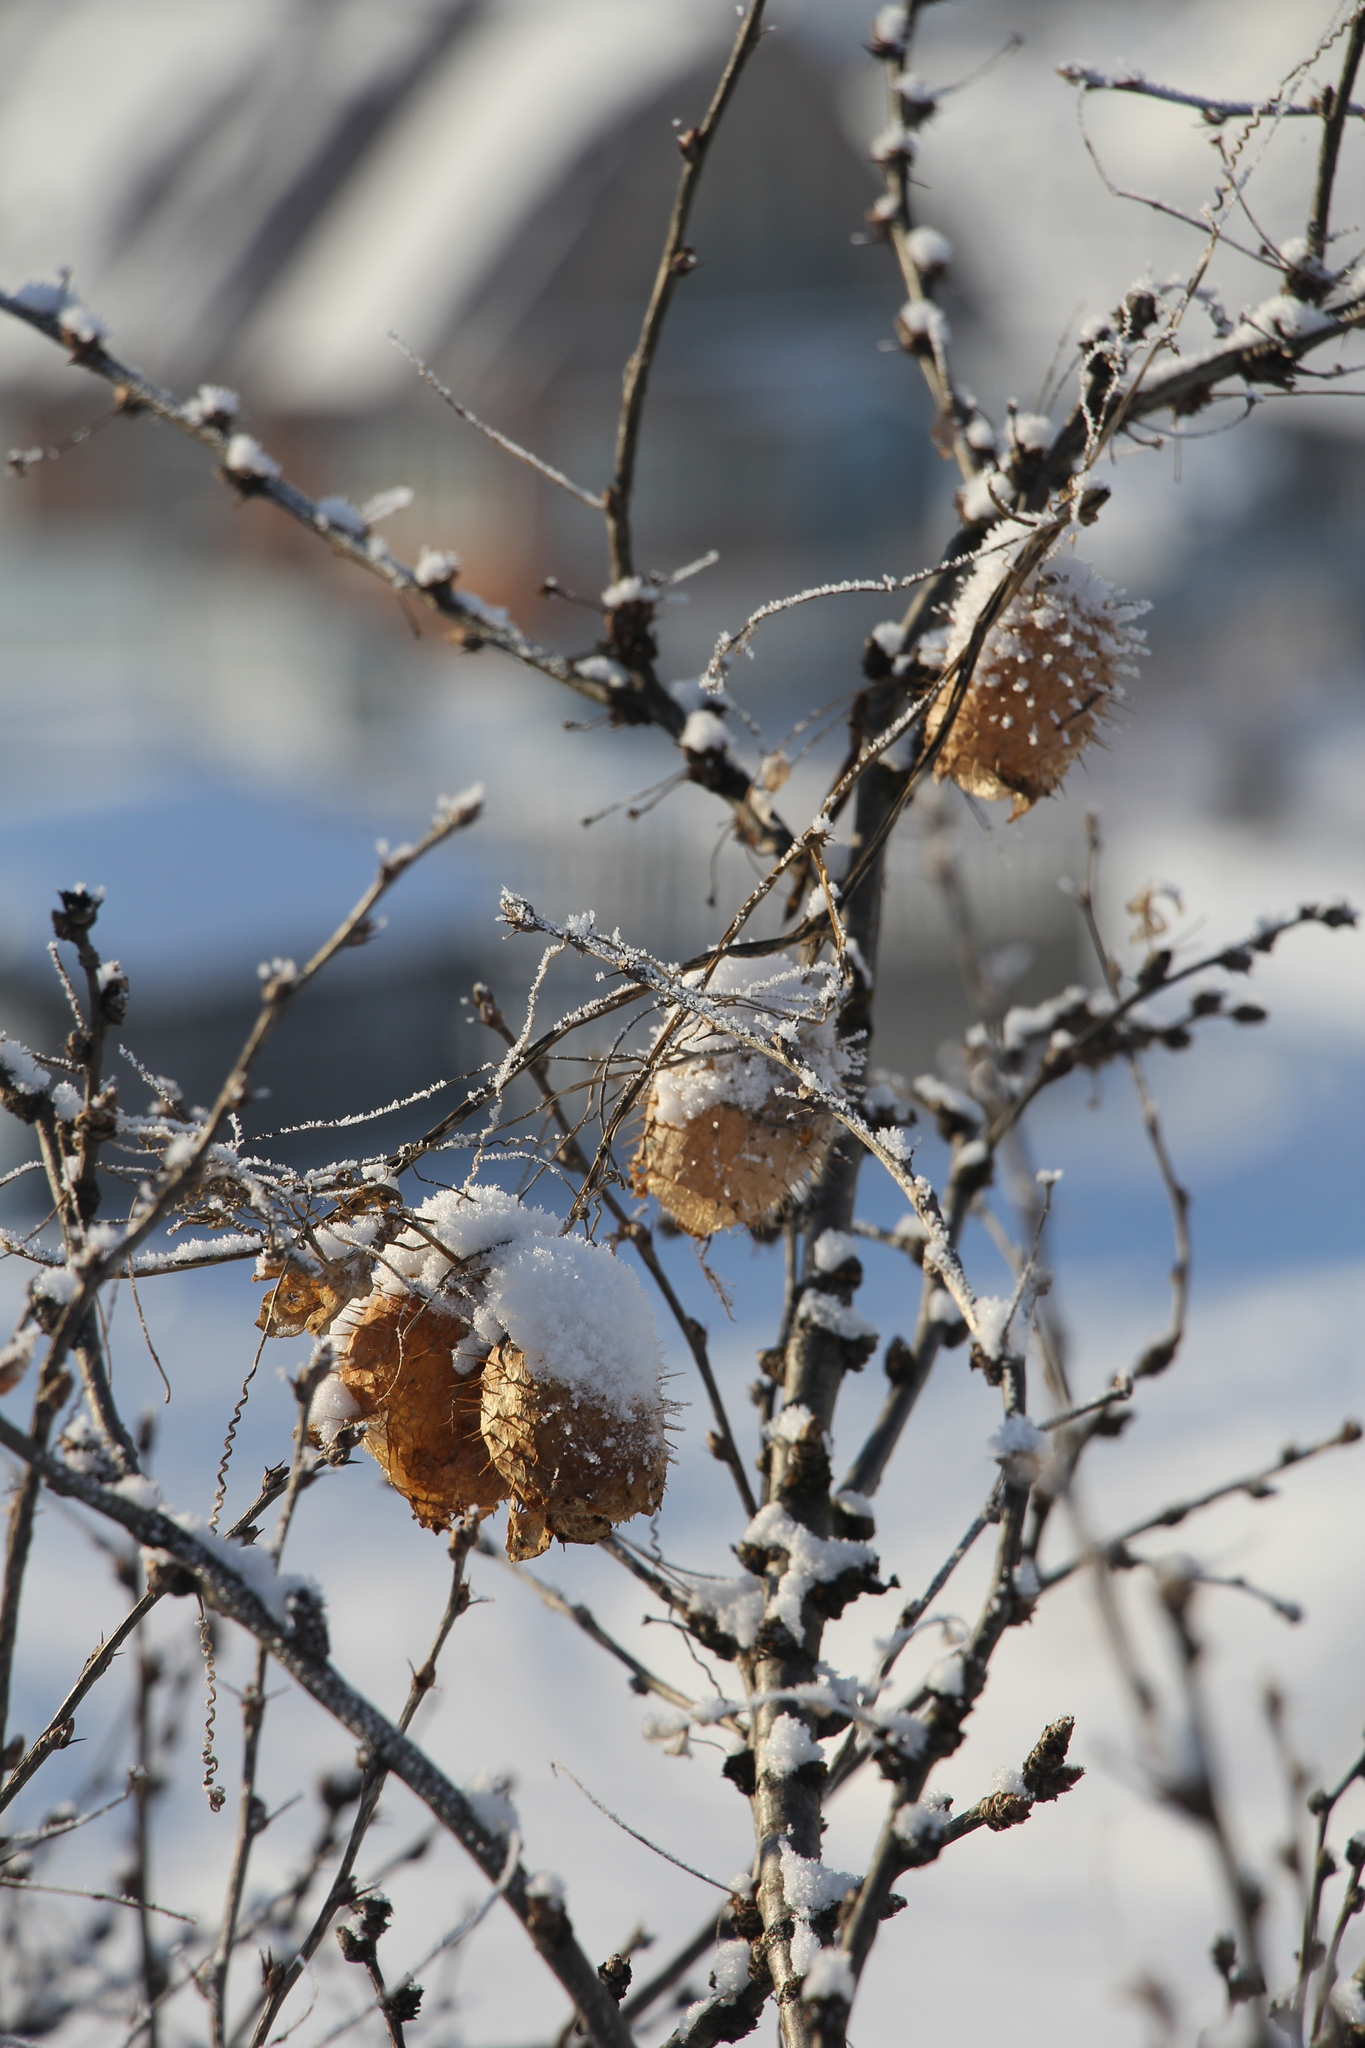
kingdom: Plantae
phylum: Tracheophyta
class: Magnoliopsida
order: Cucurbitales
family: Cucurbitaceae
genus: Echinocystis
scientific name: Echinocystis lobata
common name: Wild cucumber
